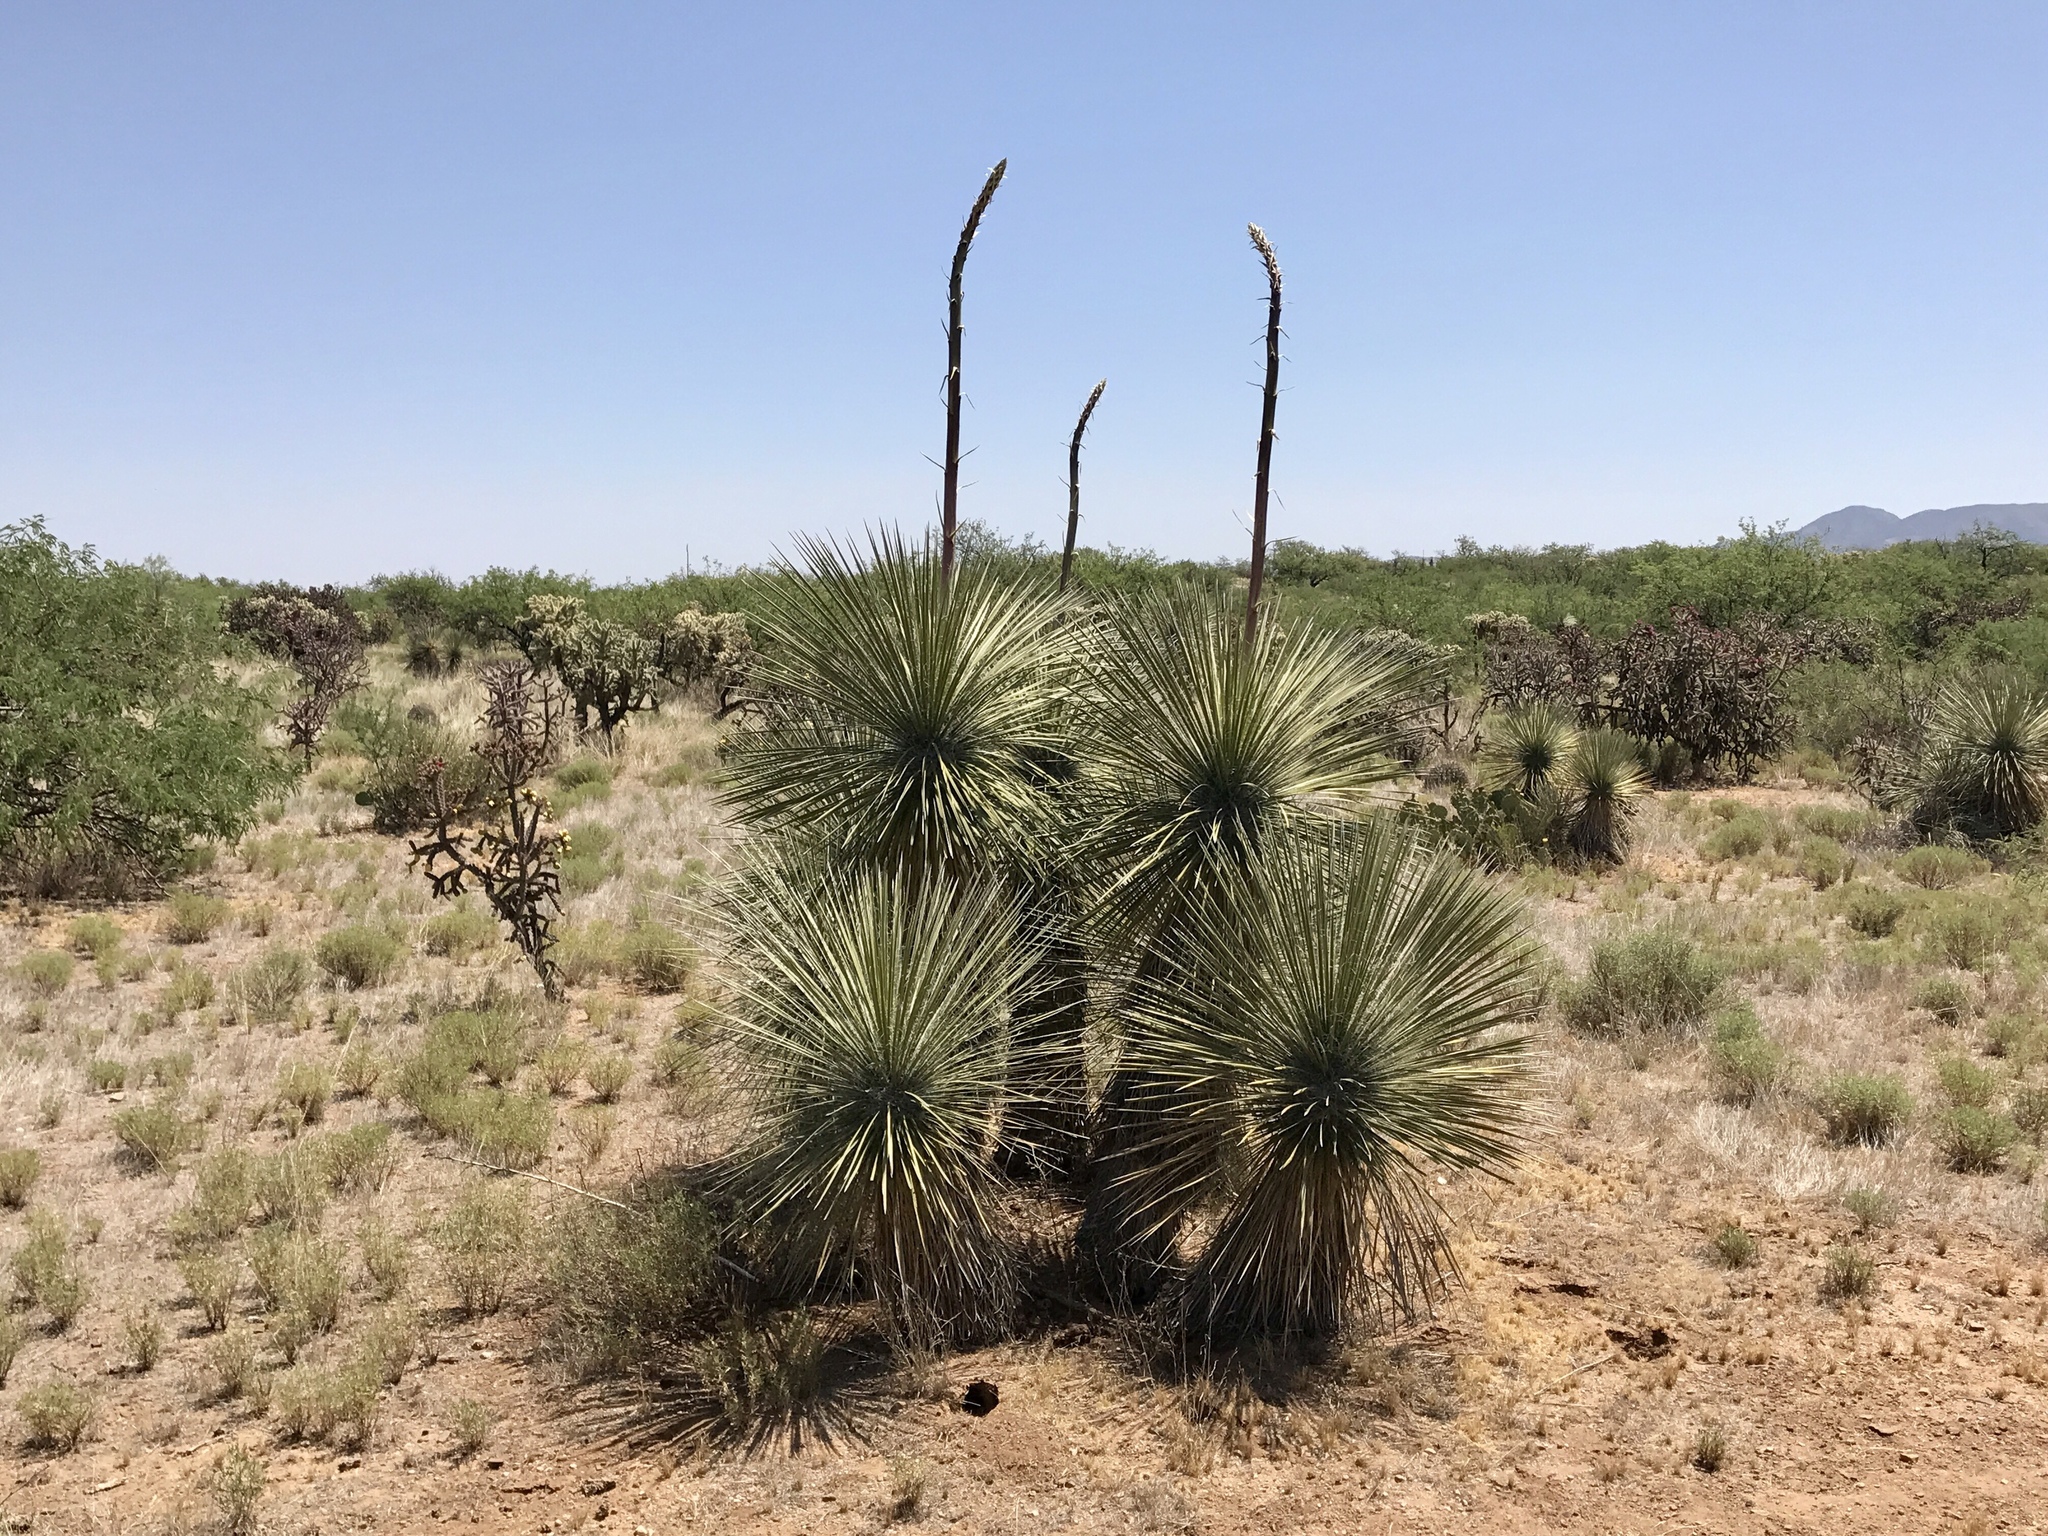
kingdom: Plantae
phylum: Tracheophyta
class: Liliopsida
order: Asparagales
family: Asparagaceae
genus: Yucca
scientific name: Yucca elata
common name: Palmella
